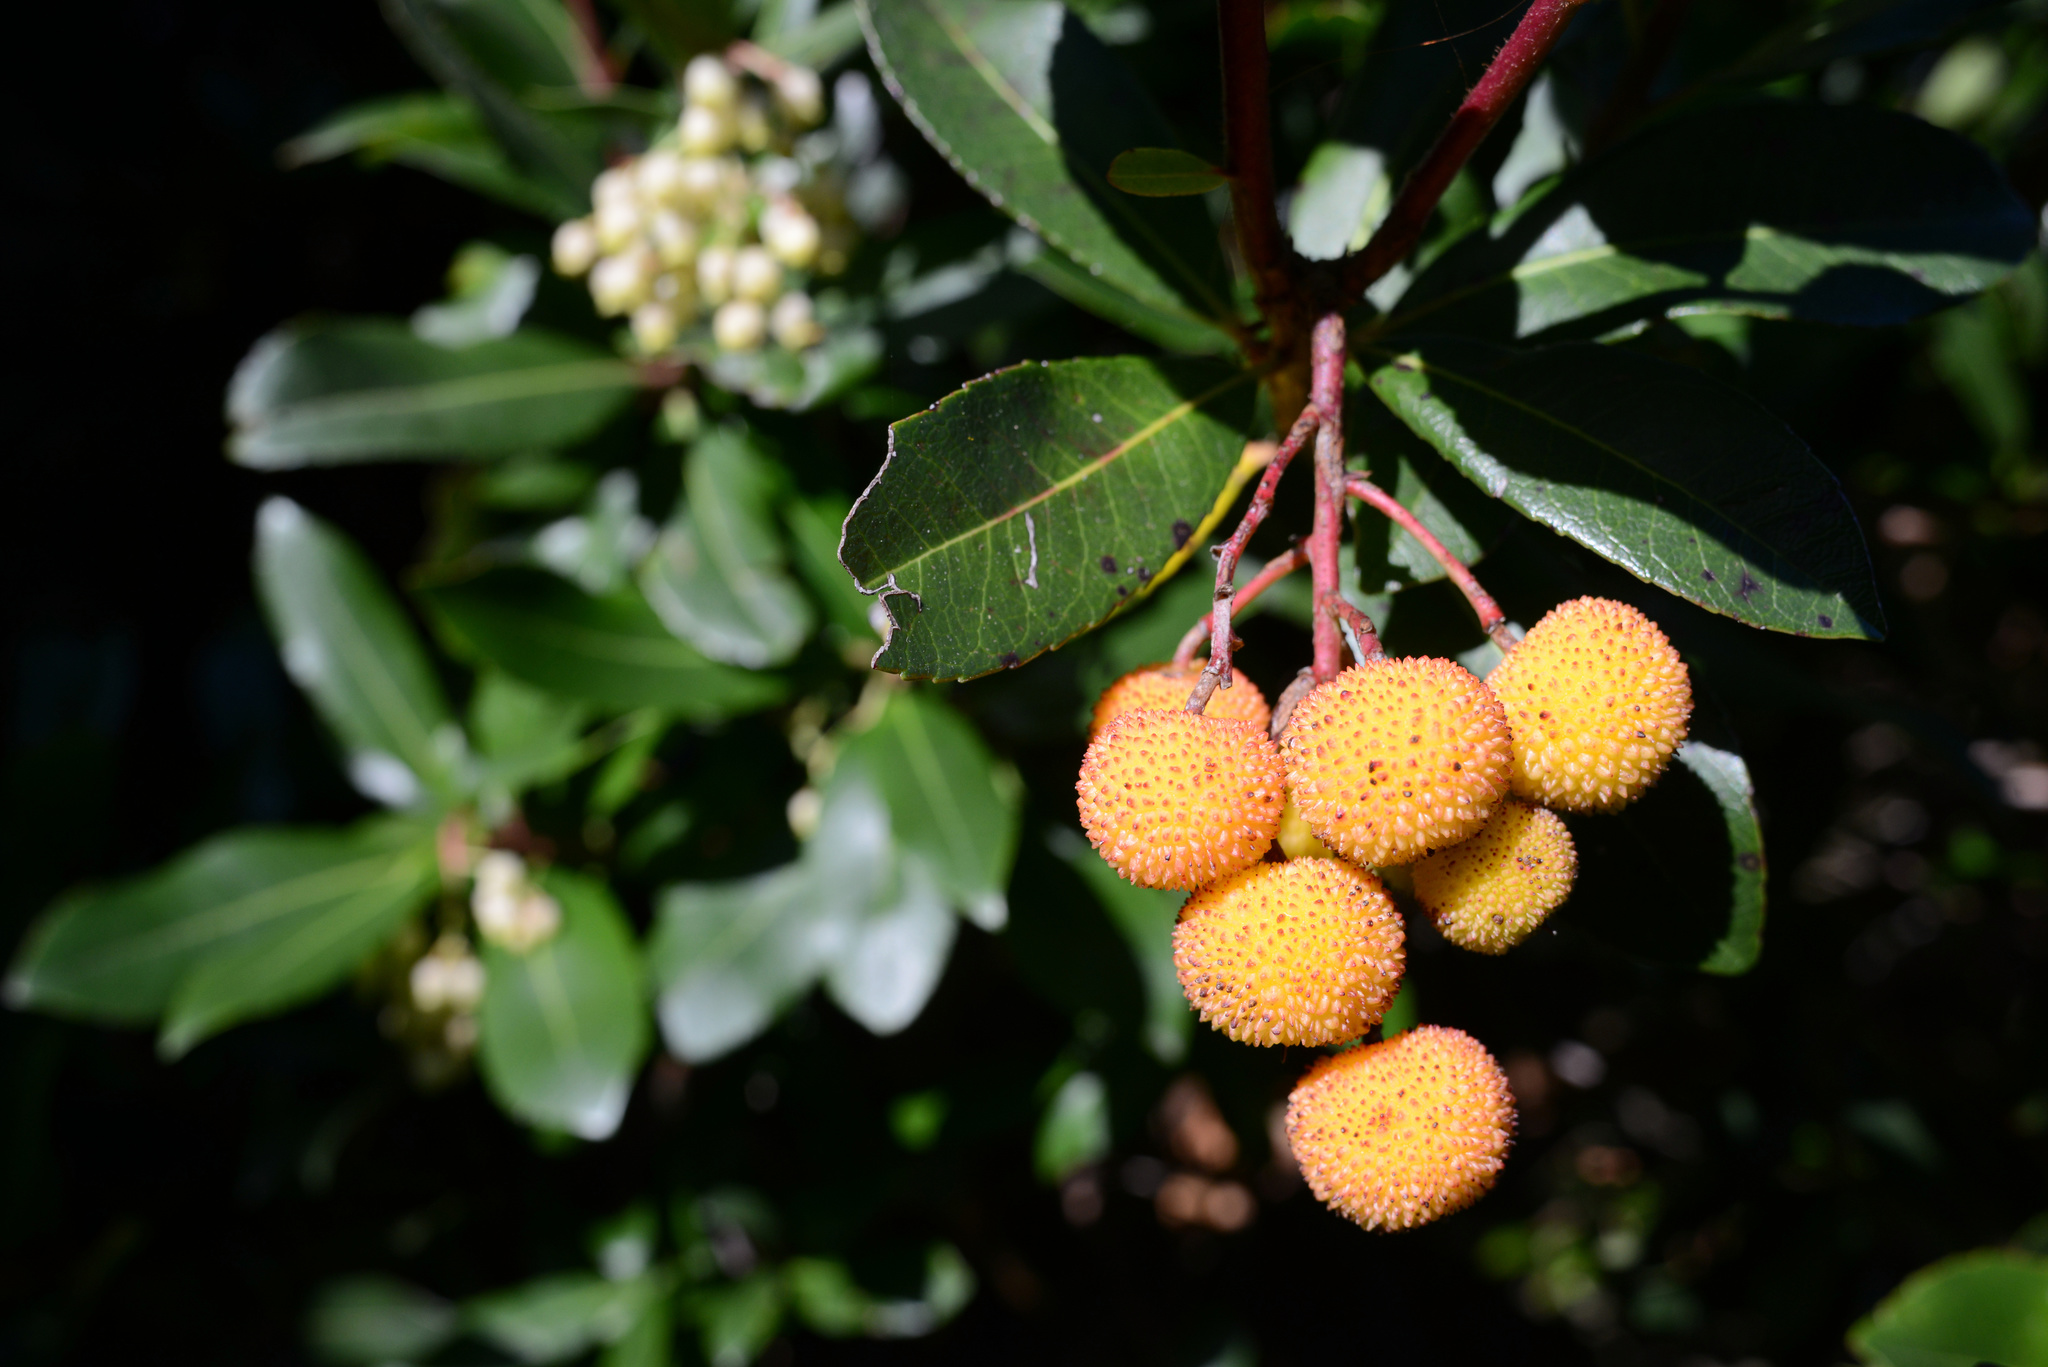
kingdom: Plantae
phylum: Tracheophyta
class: Magnoliopsida
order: Ericales
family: Ericaceae
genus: Arbutus
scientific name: Arbutus unedo
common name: Strawberry-tree
